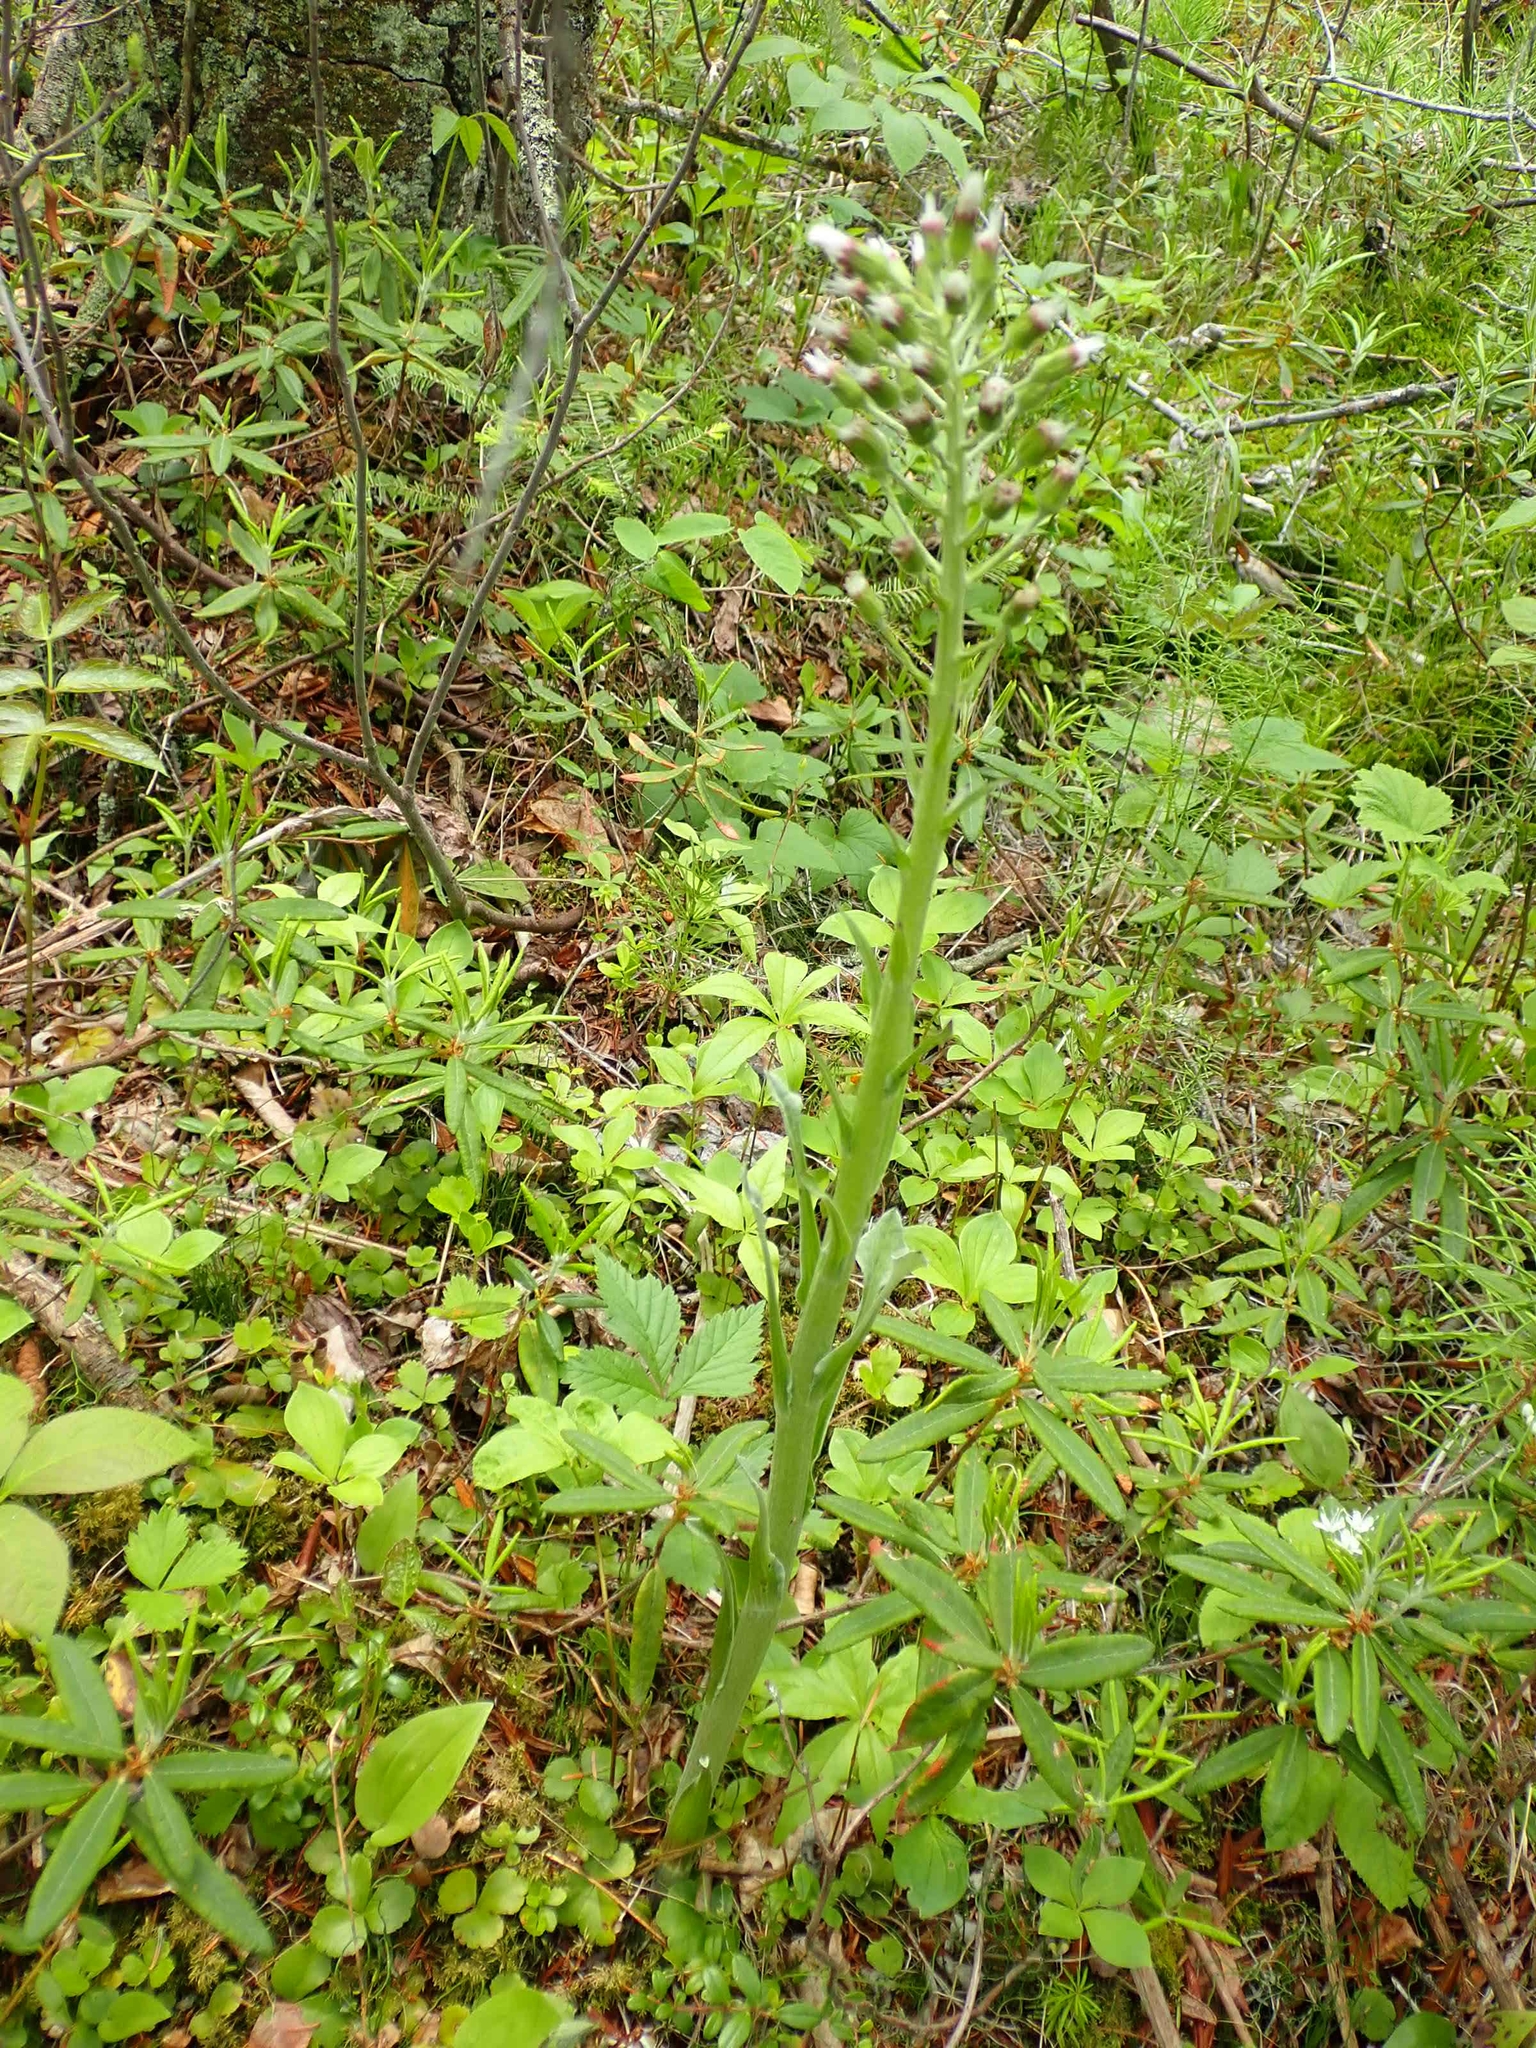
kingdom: Plantae
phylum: Tracheophyta
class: Magnoliopsida
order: Asterales
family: Asteraceae
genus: Petasites
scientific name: Petasites frigidus
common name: Arctic butterbur
